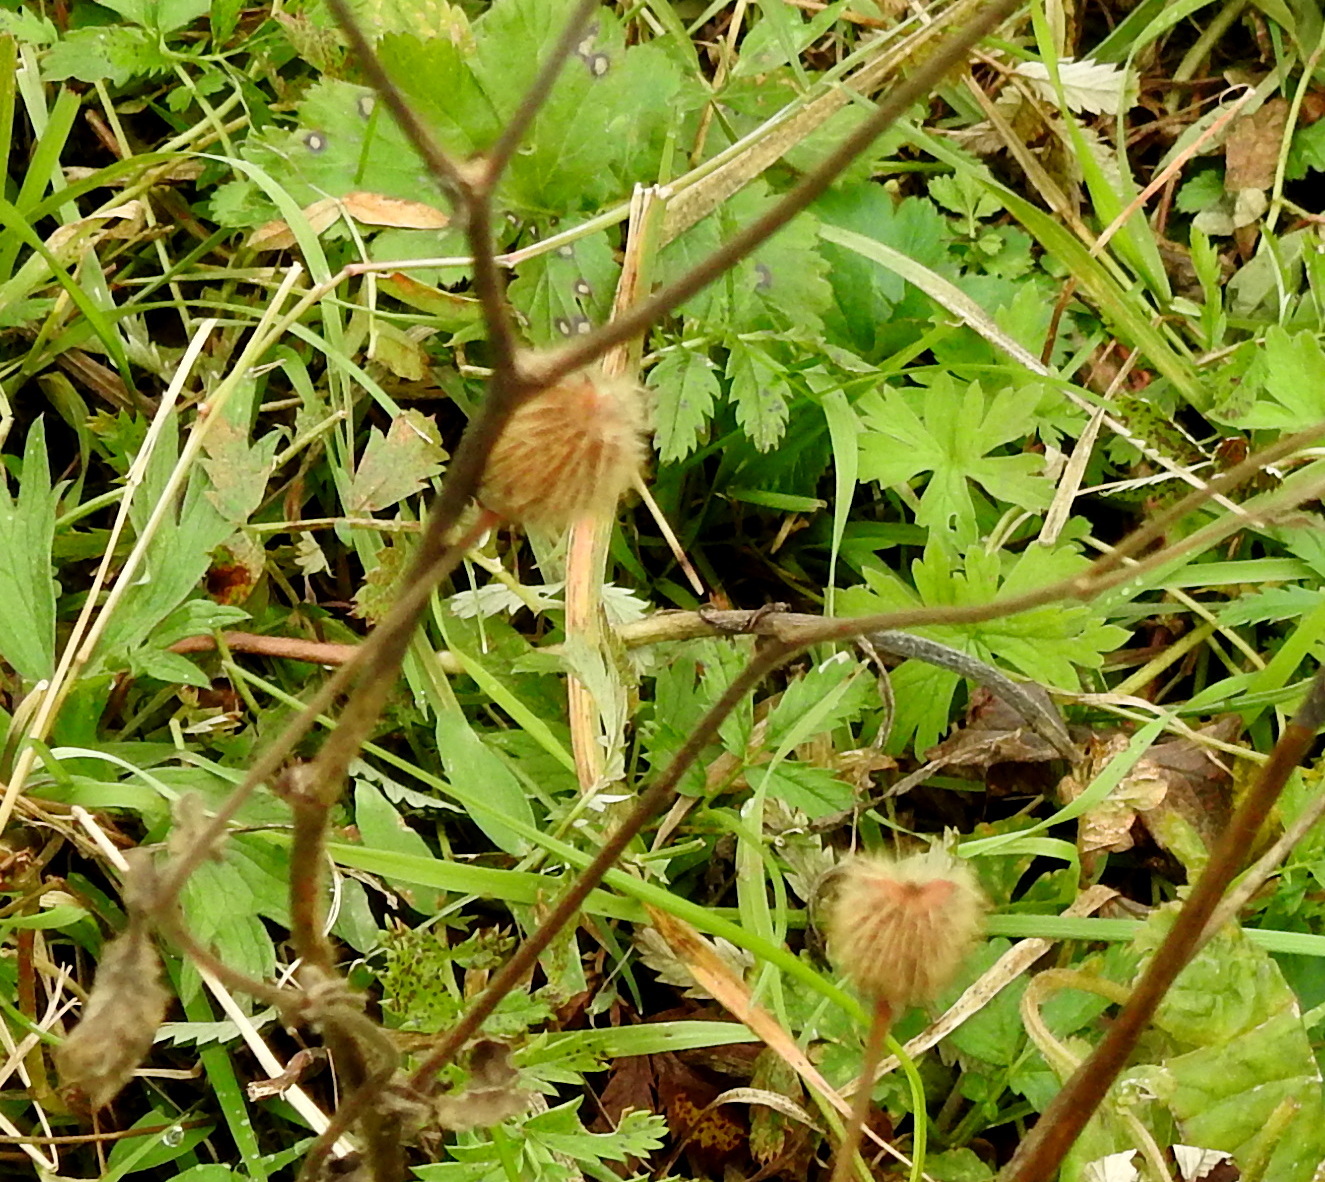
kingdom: Plantae
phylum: Tracheophyta
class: Magnoliopsida
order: Rosales
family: Rosaceae
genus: Geum
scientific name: Geum aleppicum
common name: Yellow avens
